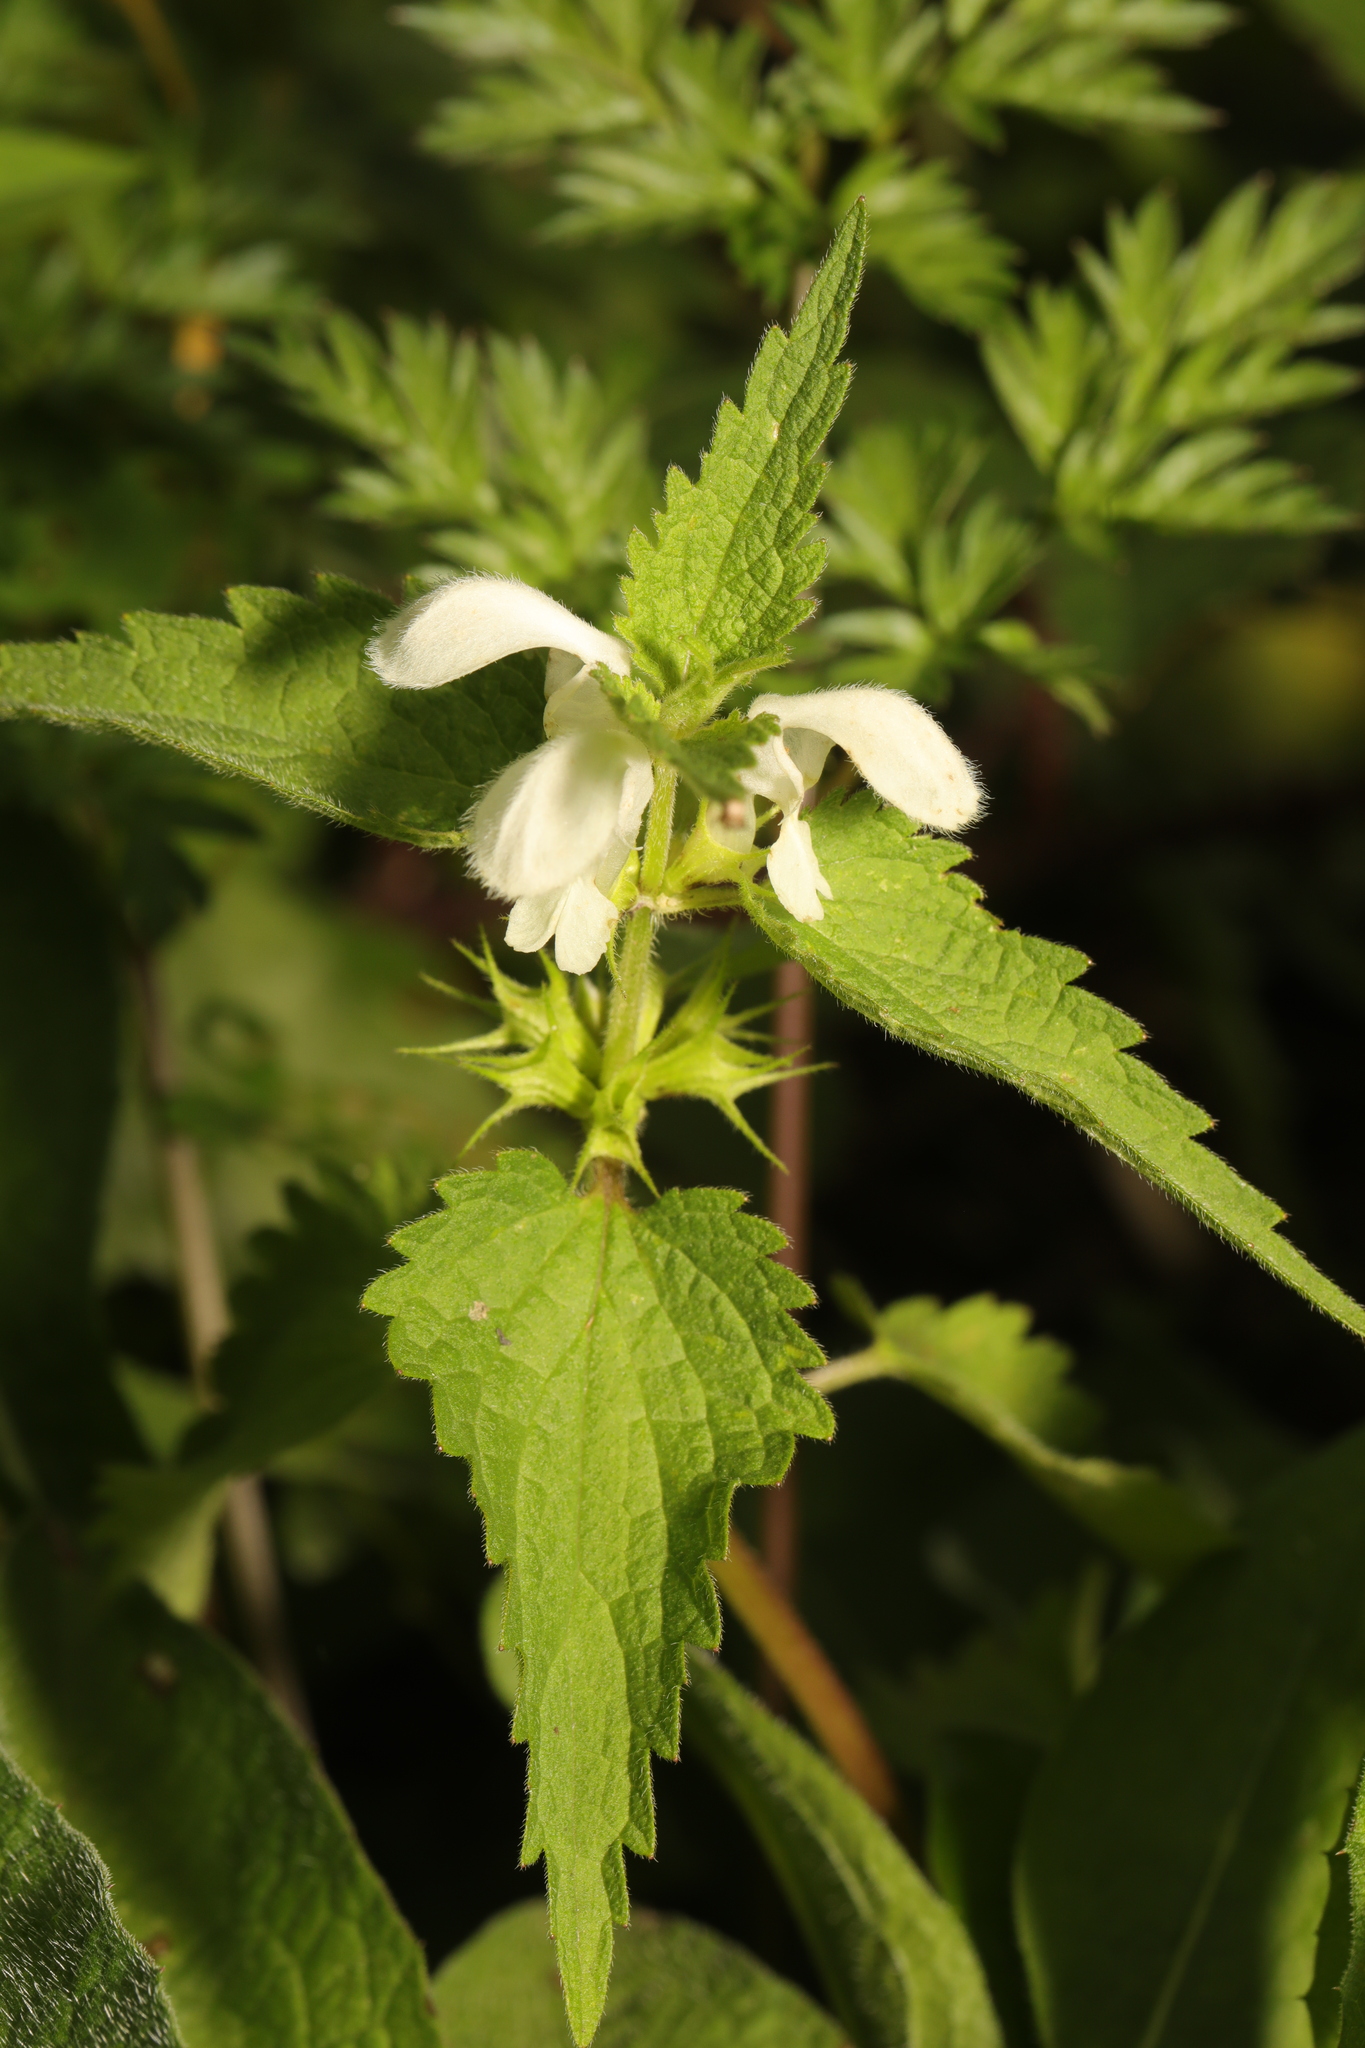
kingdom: Plantae
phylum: Tracheophyta
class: Magnoliopsida
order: Lamiales
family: Lamiaceae
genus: Lamium
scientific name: Lamium album
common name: White dead-nettle
